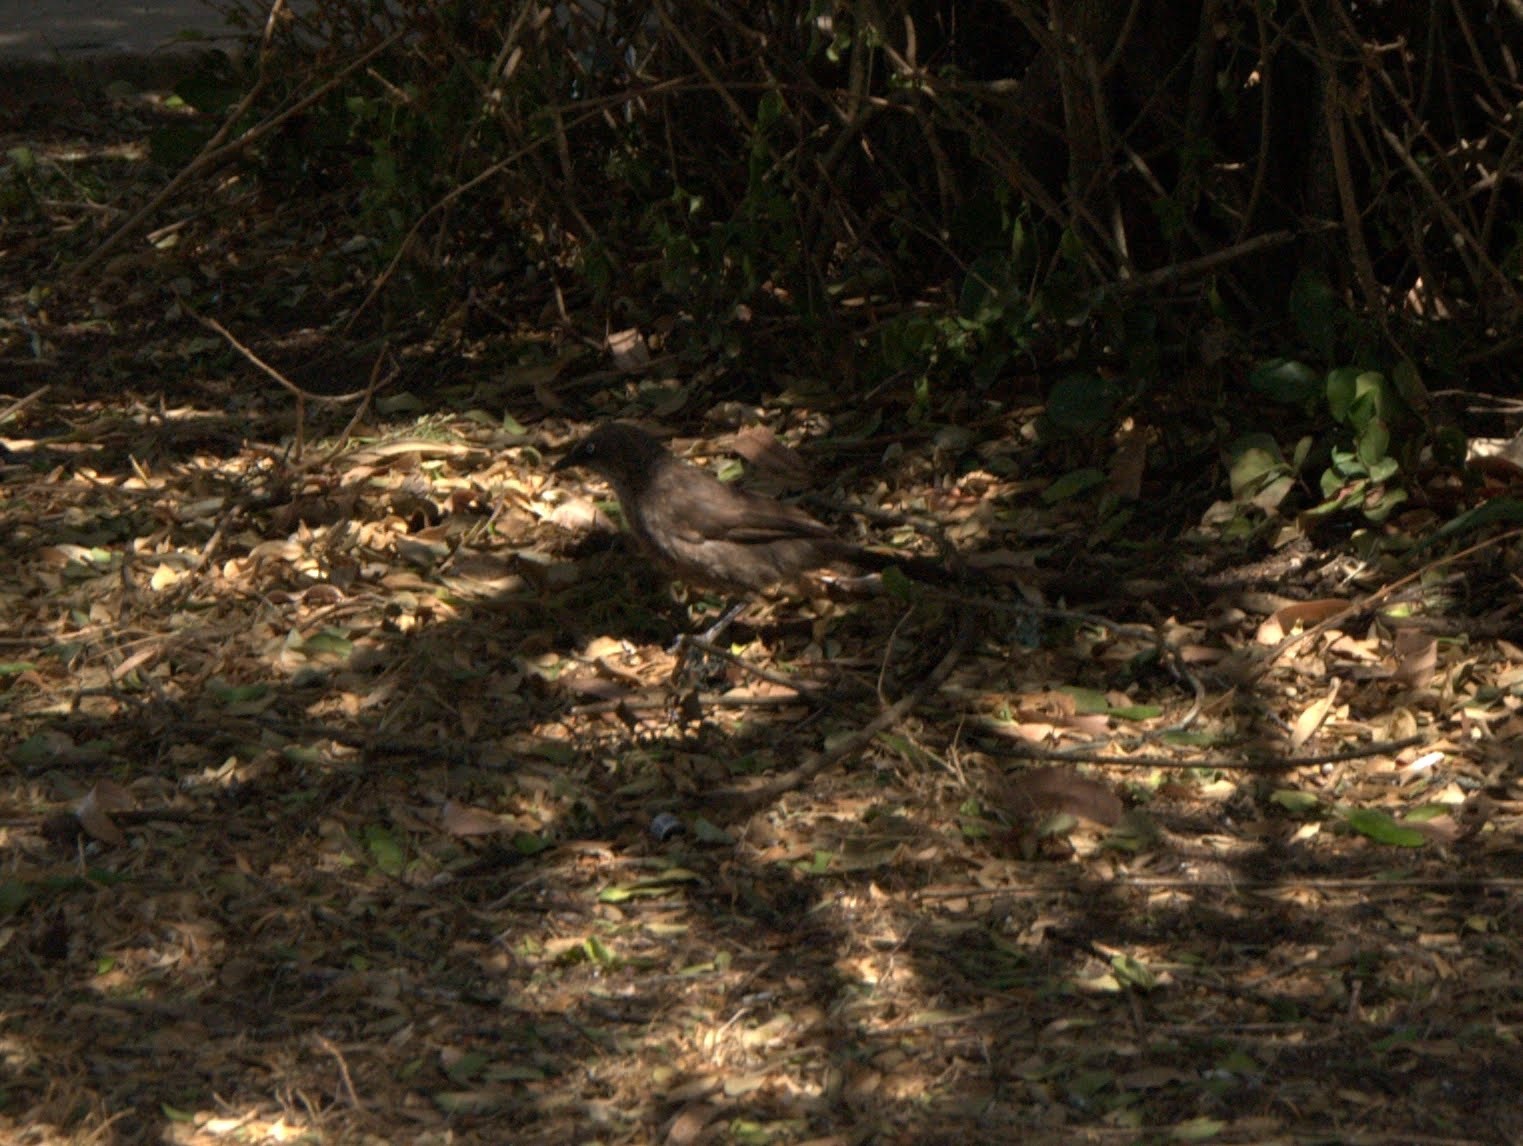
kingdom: Animalia
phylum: Chordata
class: Aves
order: Passeriformes
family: Leiothrichidae
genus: Turdoides
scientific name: Turdoides sharpei
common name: Black-lored babbler
